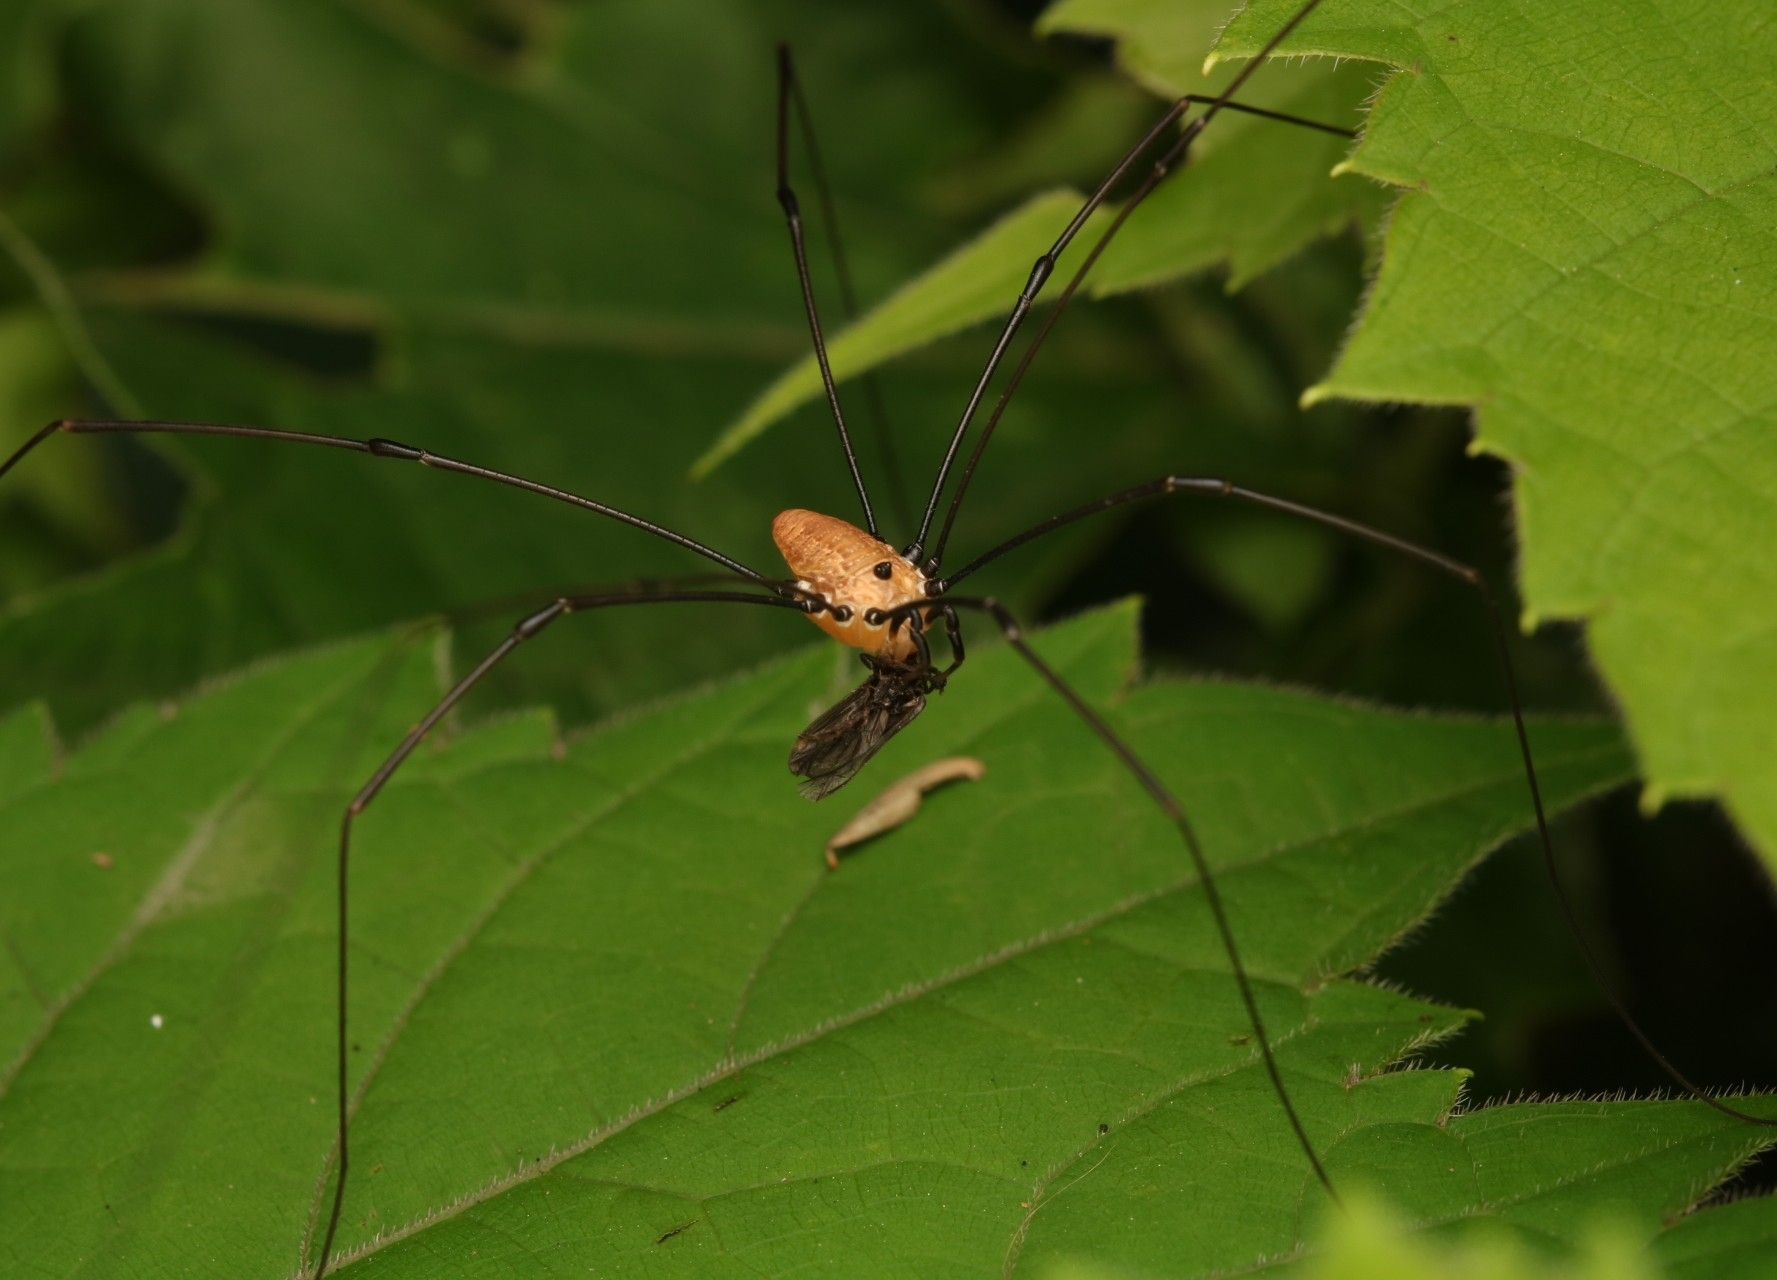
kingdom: Animalia
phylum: Arthropoda
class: Arachnida
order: Opiliones
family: Sclerosomatidae
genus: Leiobunum
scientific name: Leiobunum nigropalpi
